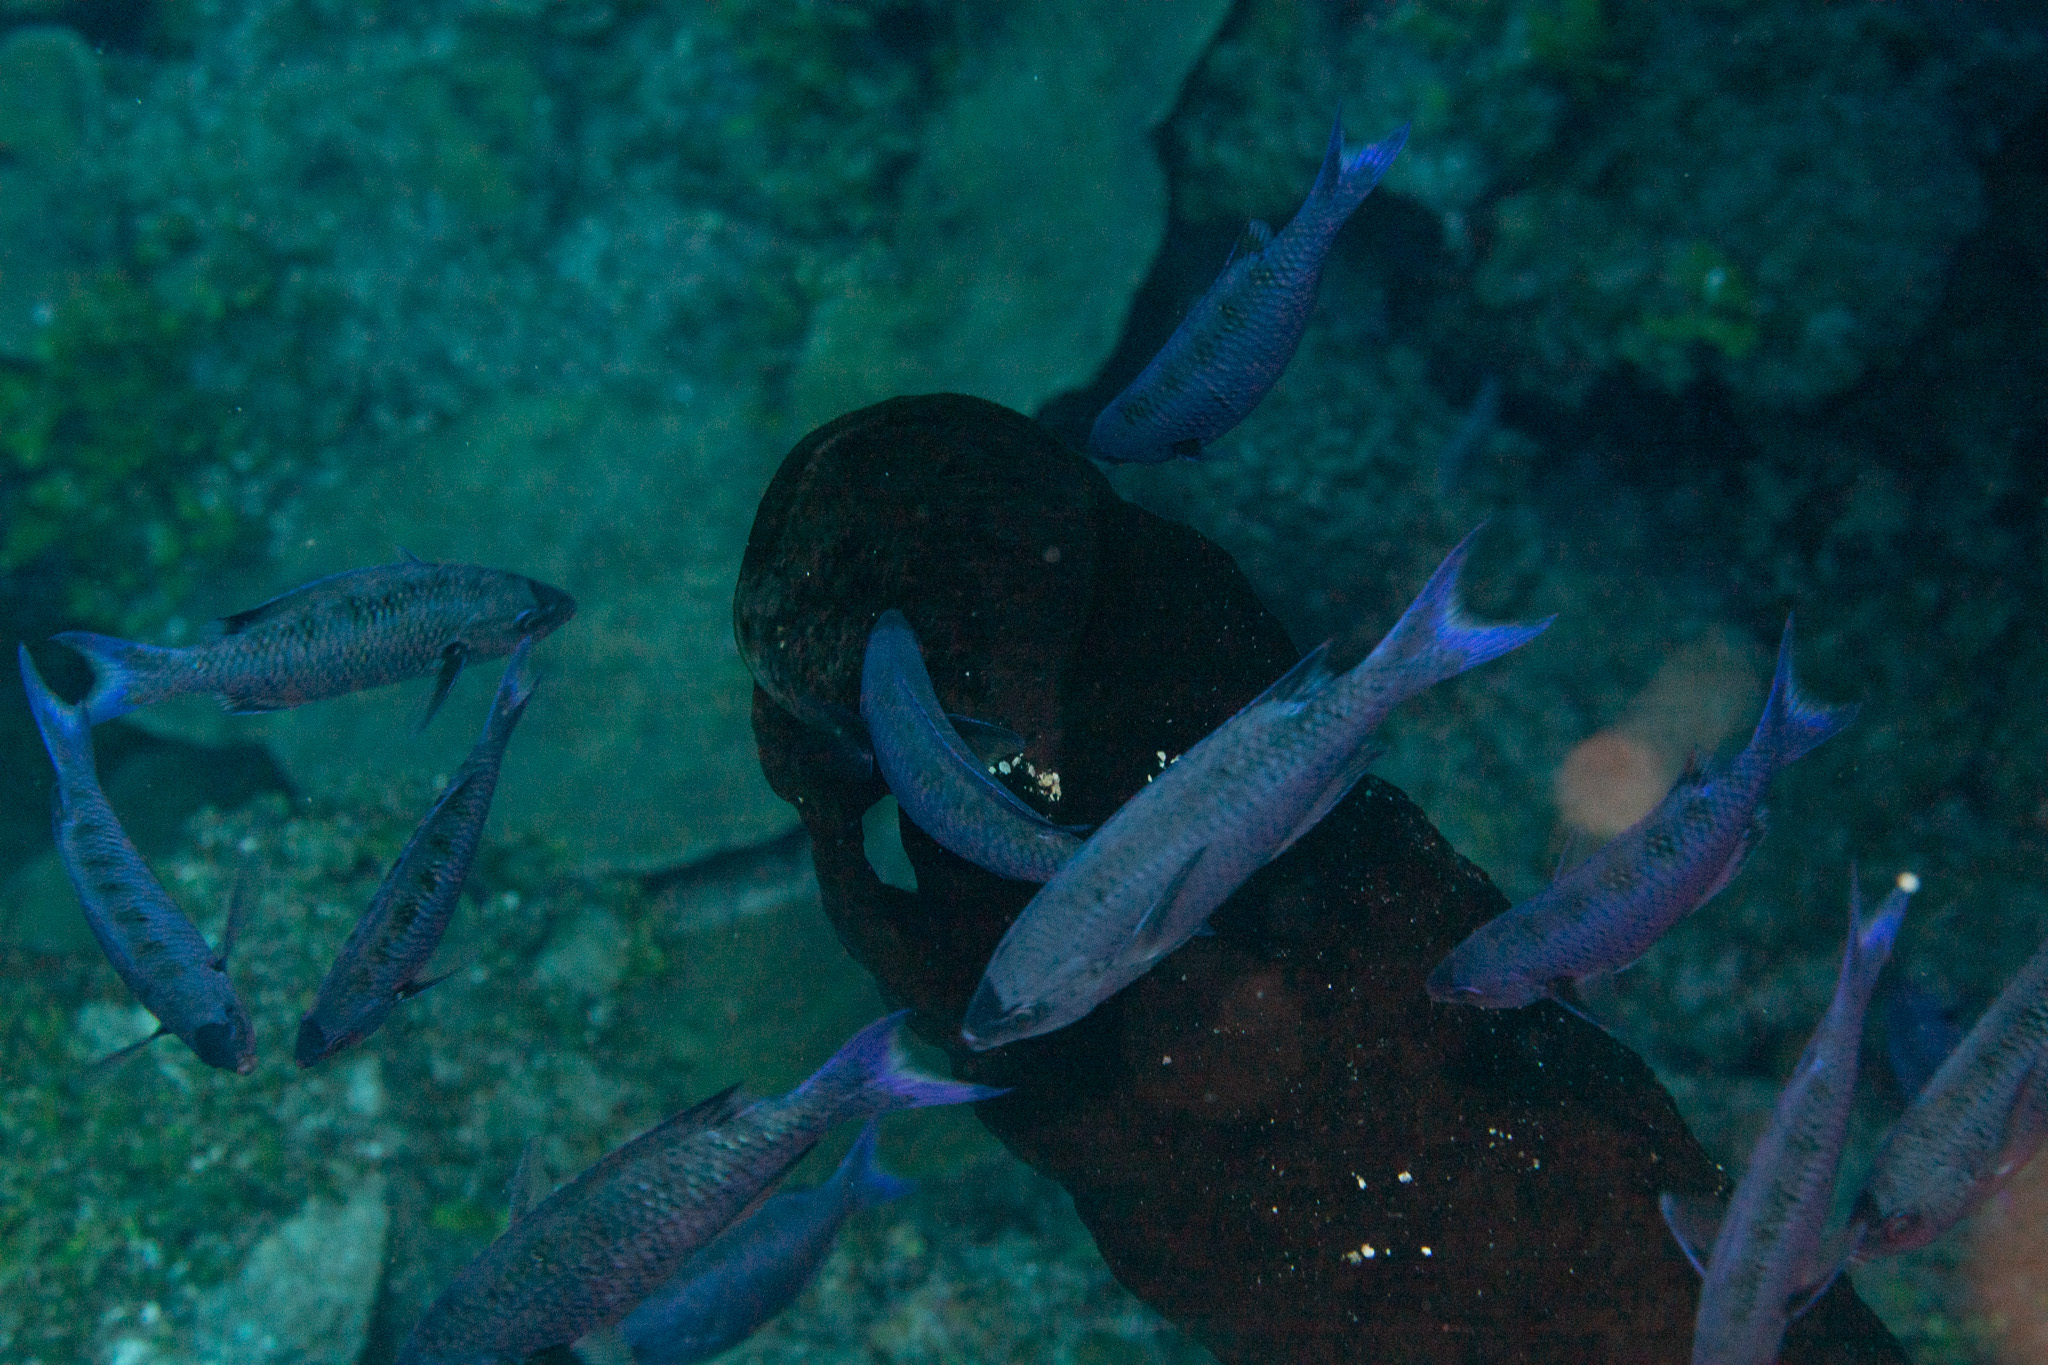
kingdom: Animalia
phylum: Chordata
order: Perciformes
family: Labridae
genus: Bodianus
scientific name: Bodianus
